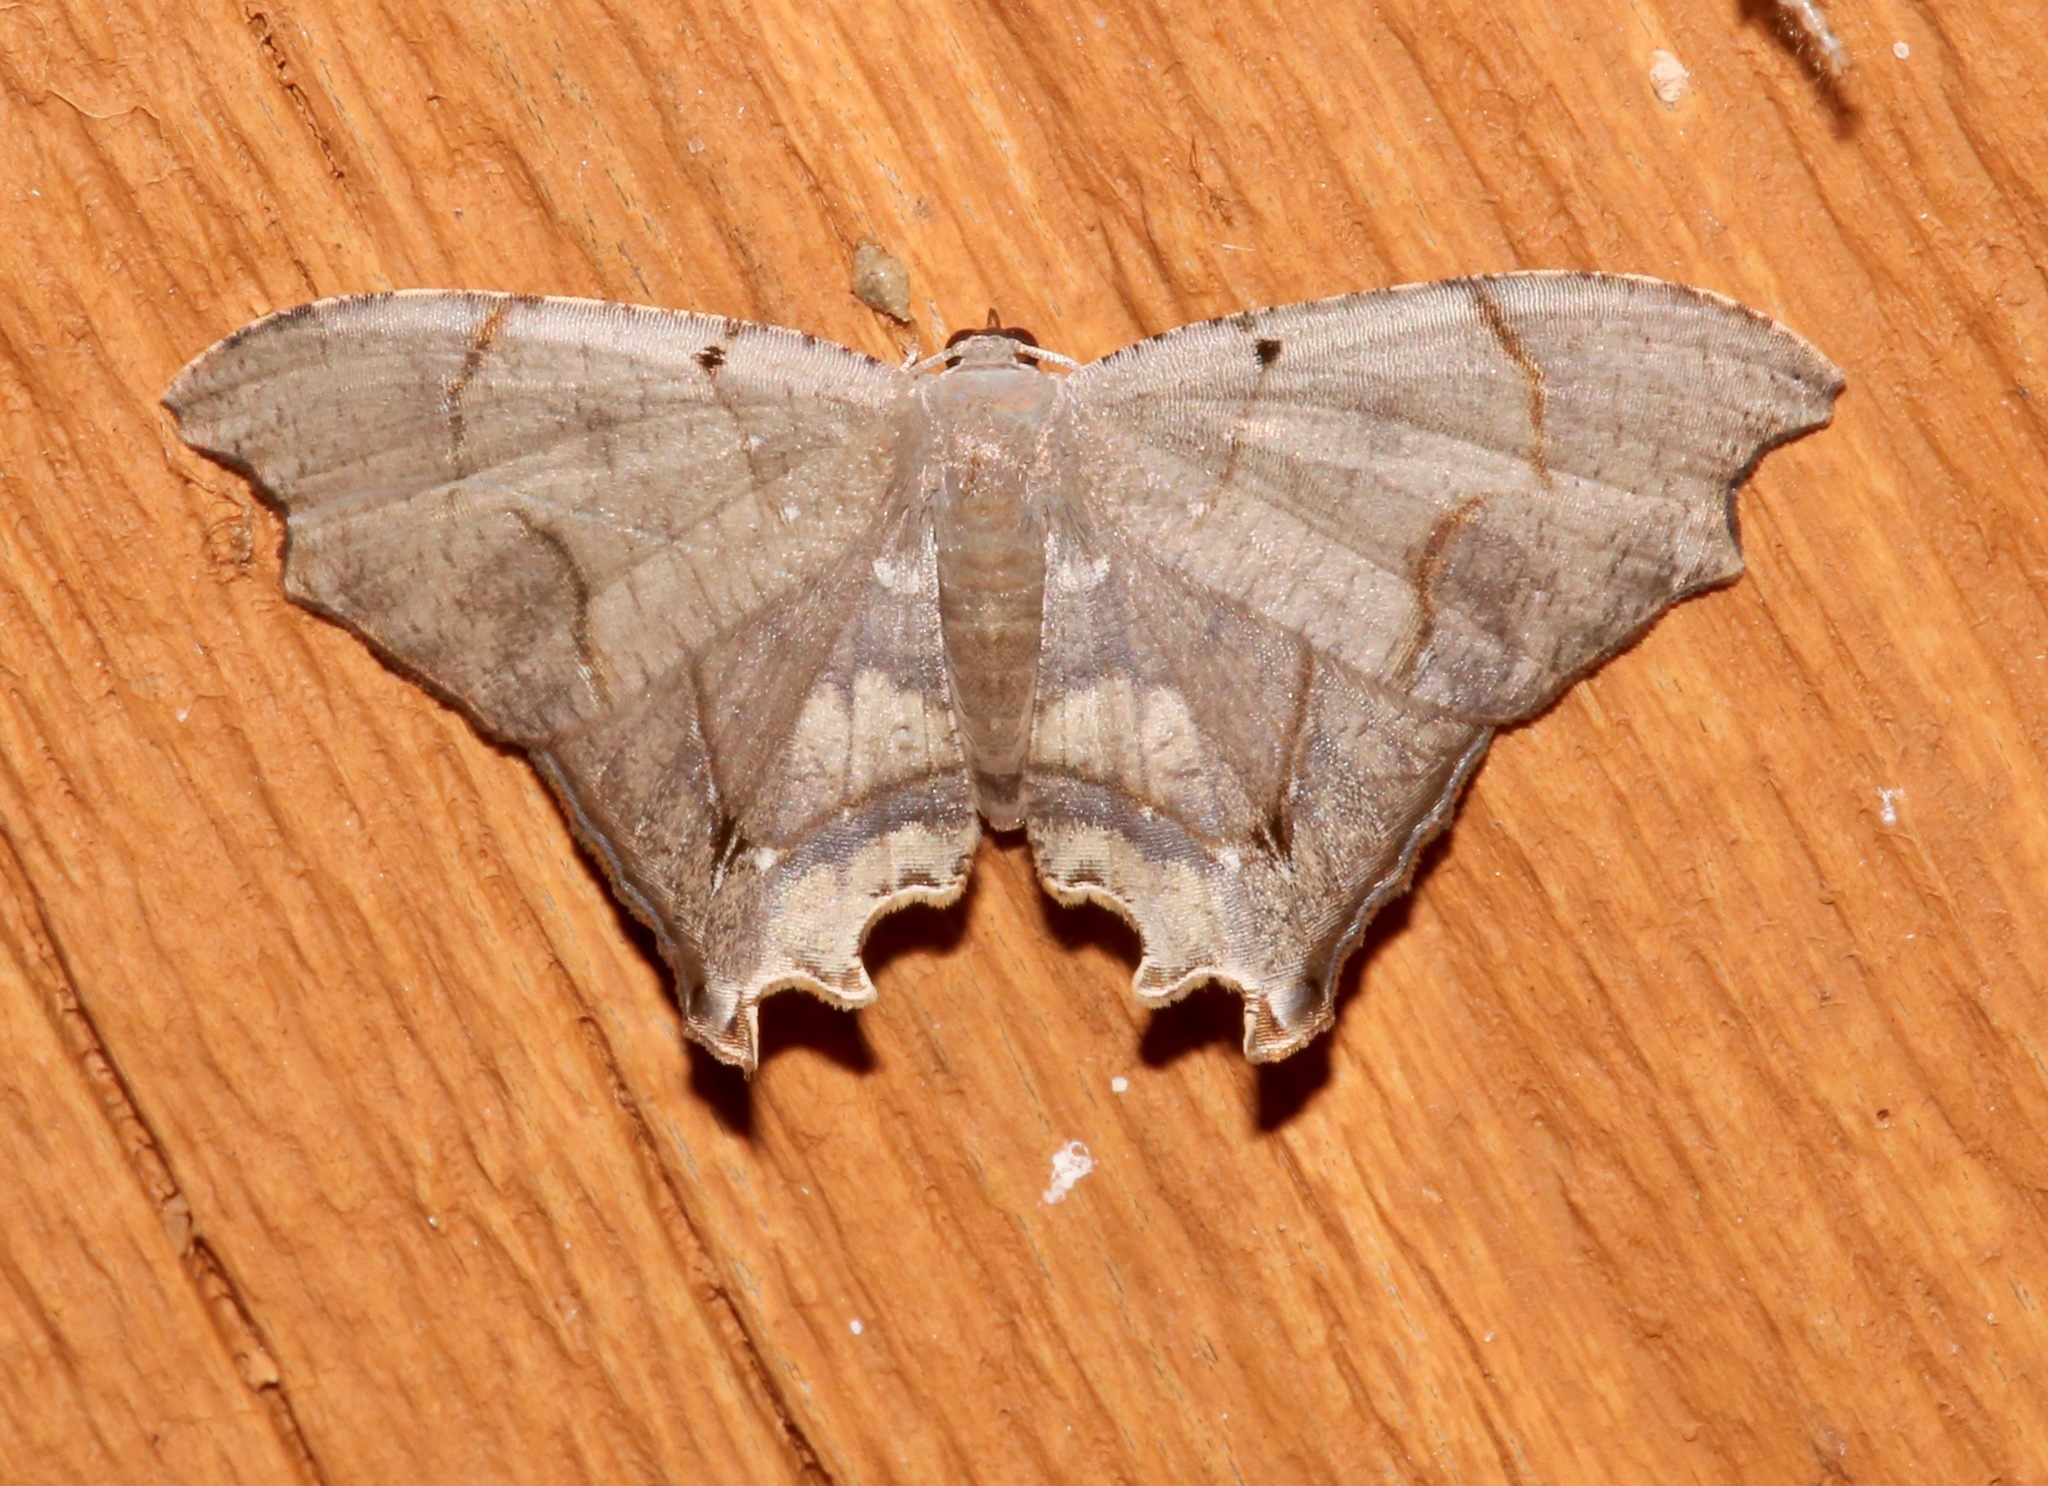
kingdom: Animalia
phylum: Arthropoda
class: Insecta
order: Lepidoptera
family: Uraniidae
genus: Trotorhombia
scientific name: Trotorhombia metachromata
